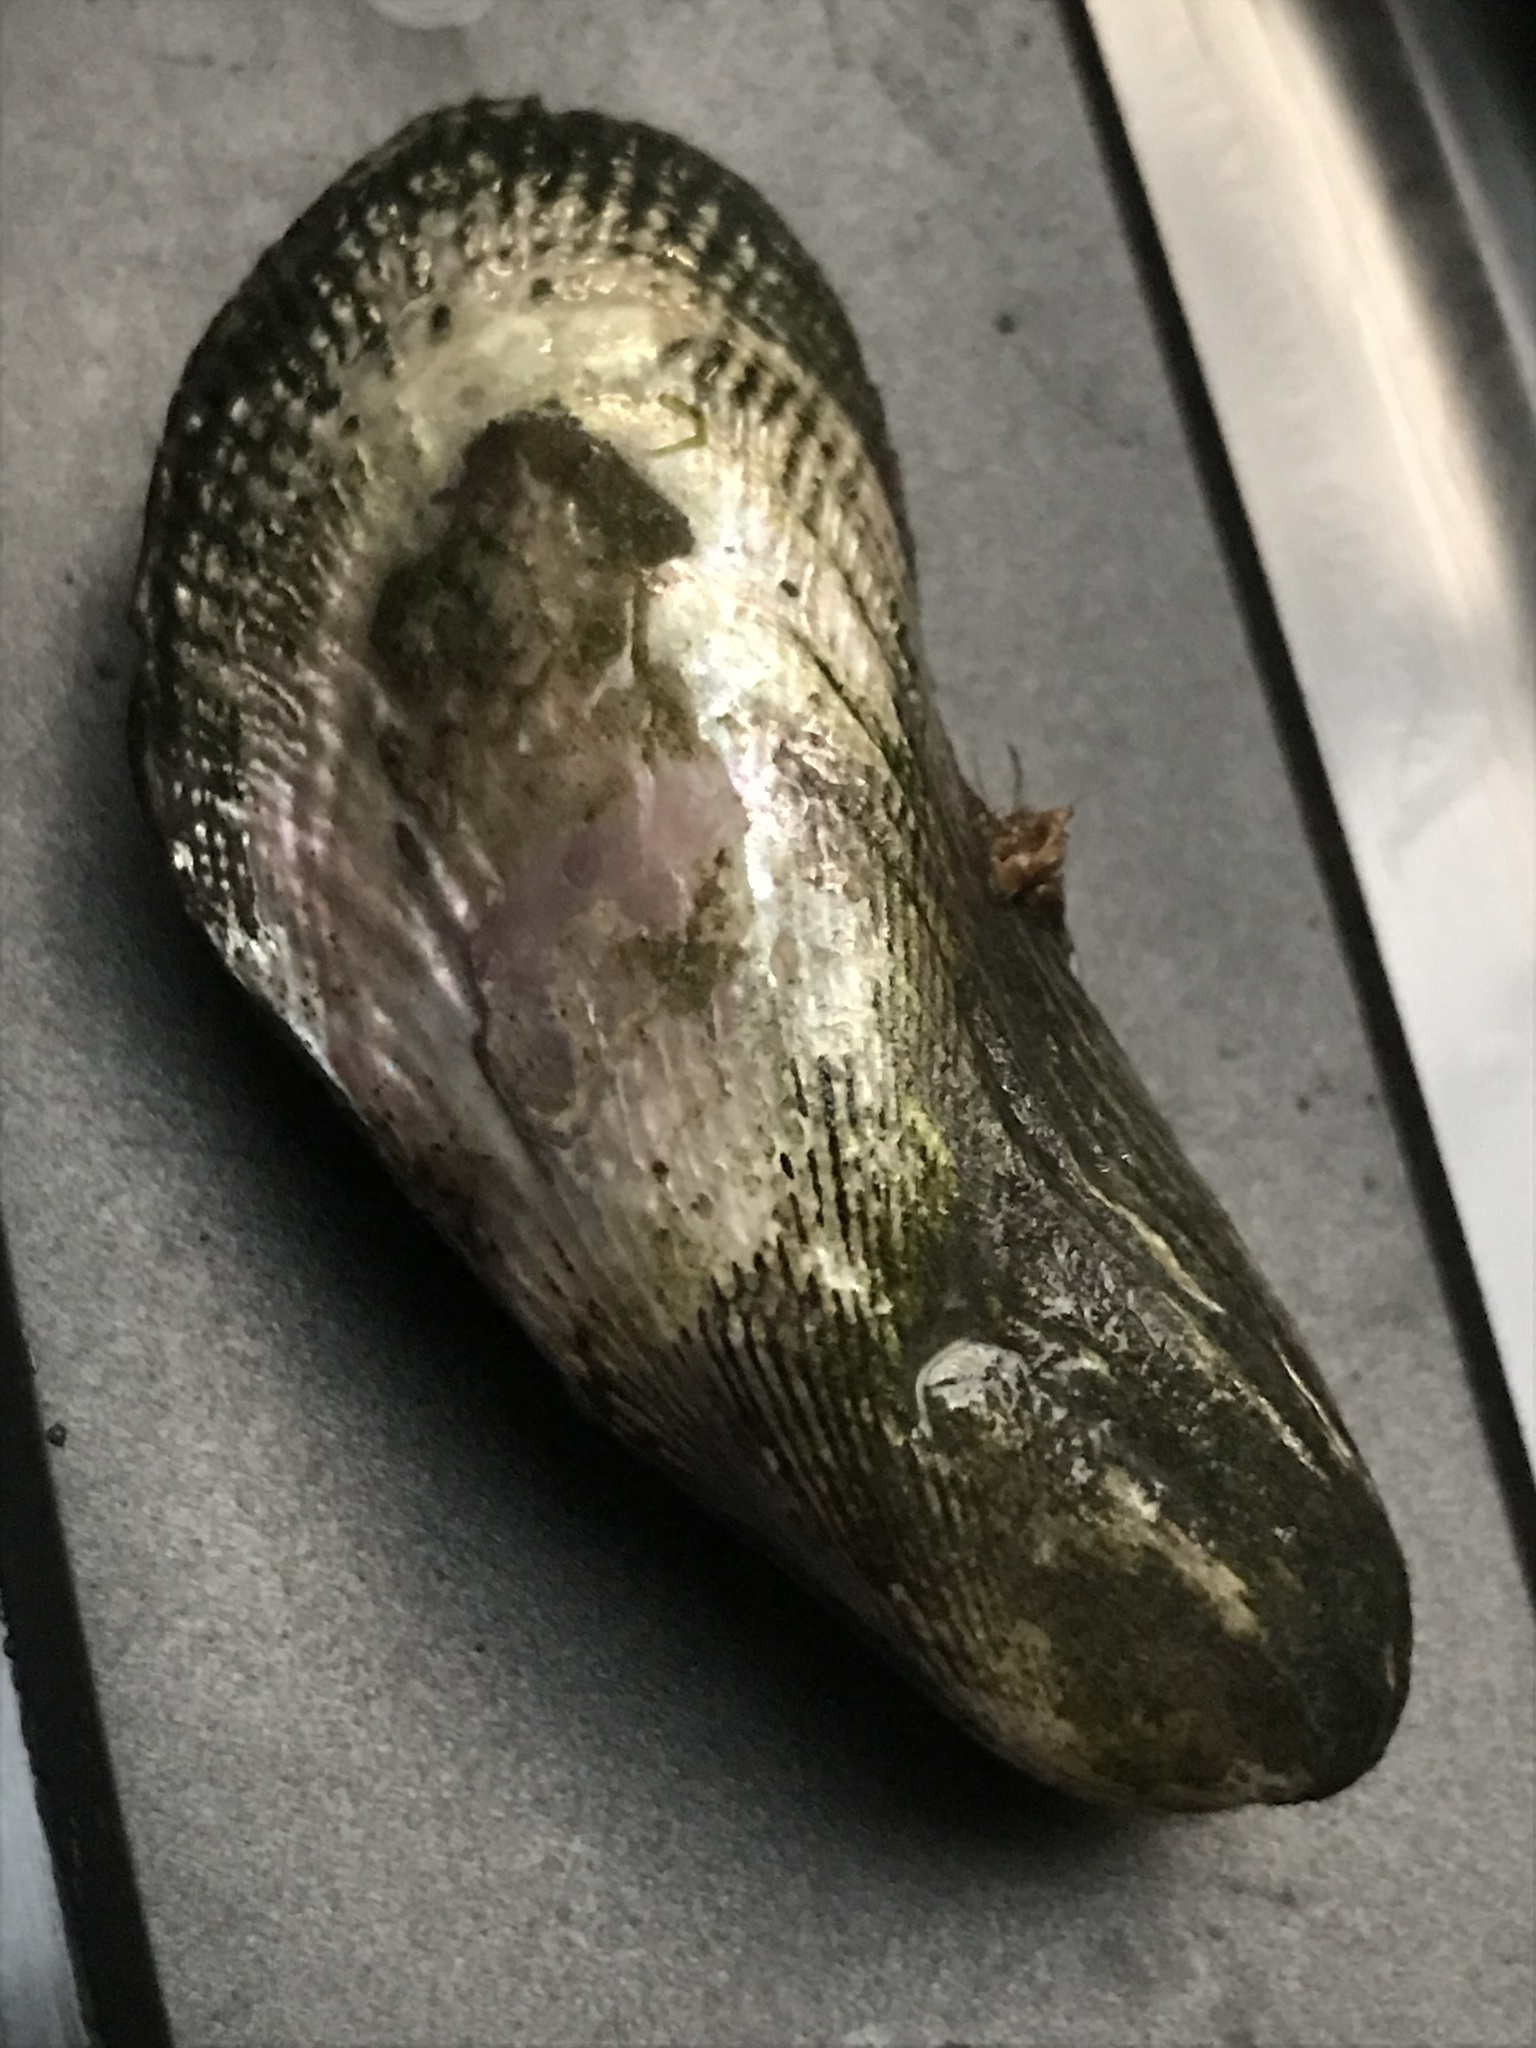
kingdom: Animalia
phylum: Mollusca
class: Bivalvia
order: Mytilida
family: Mytilidae
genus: Geukensia
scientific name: Geukensia demissa
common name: Ribbed mussel
